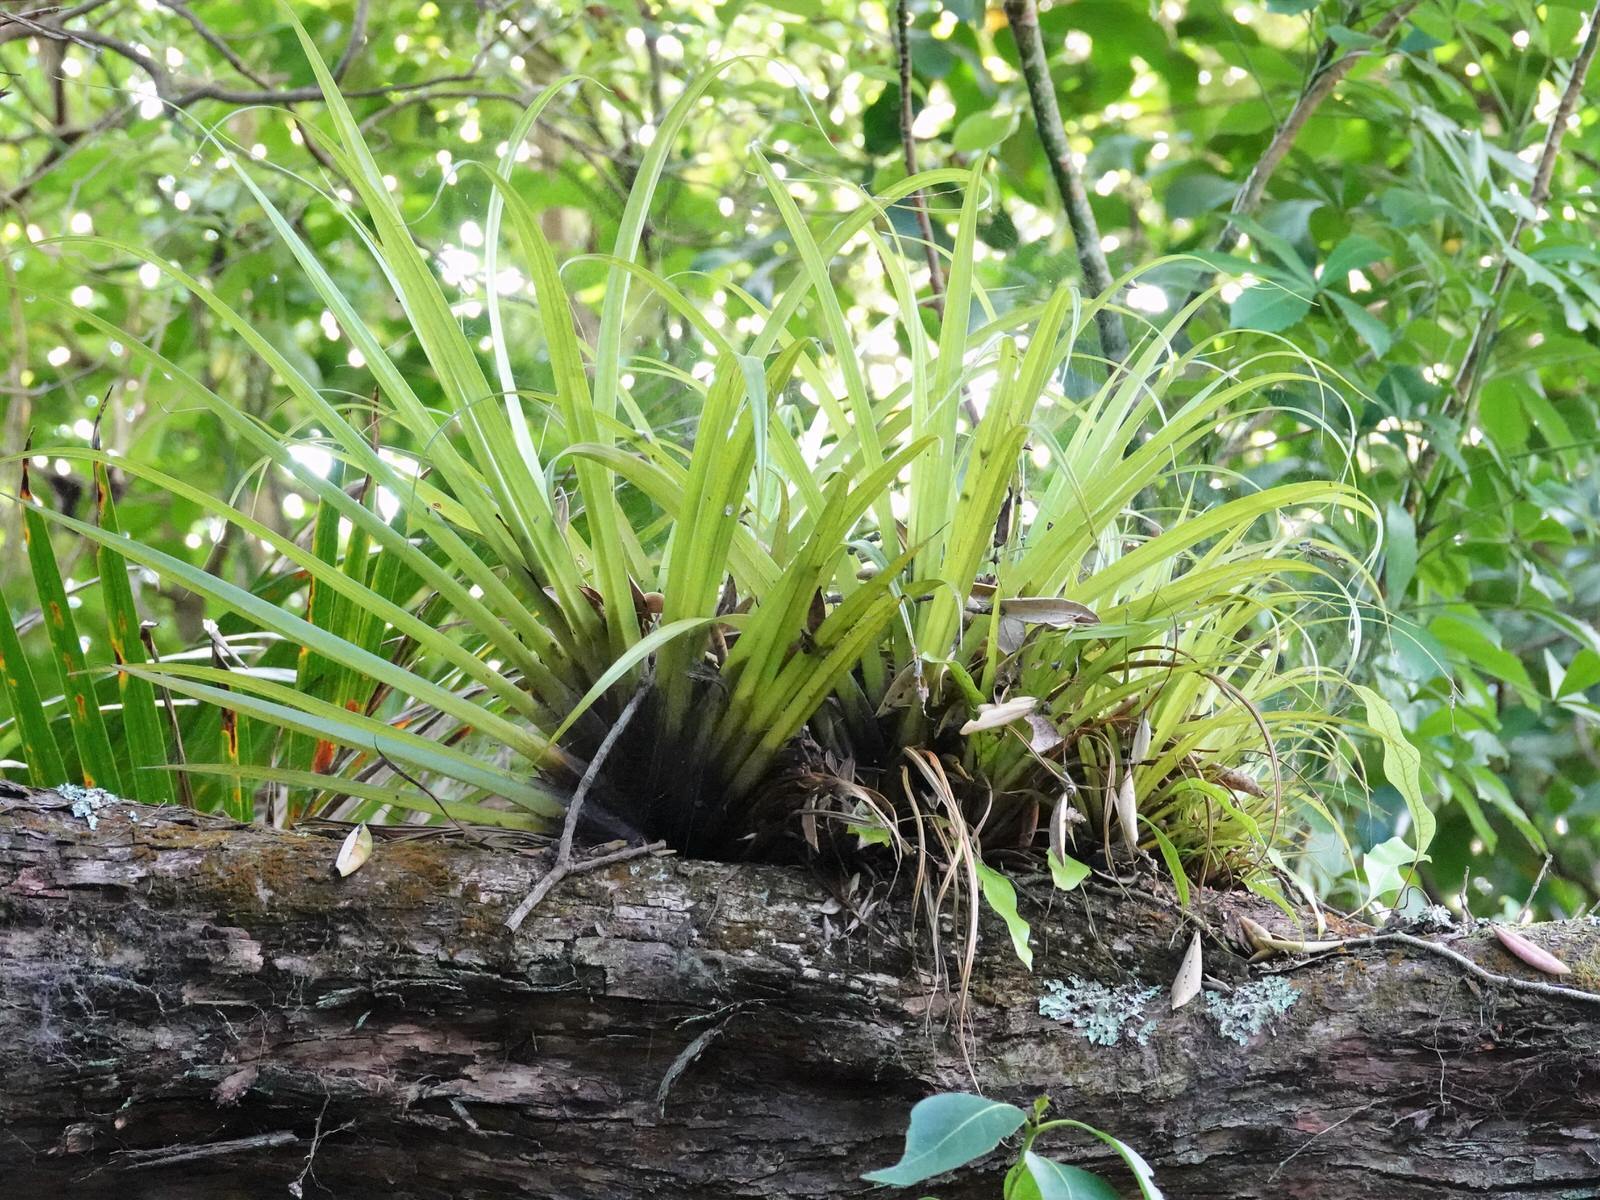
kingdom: Plantae
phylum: Tracheophyta
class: Liliopsida
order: Asparagales
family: Asteliaceae
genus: Astelia
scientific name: Astelia hastata
